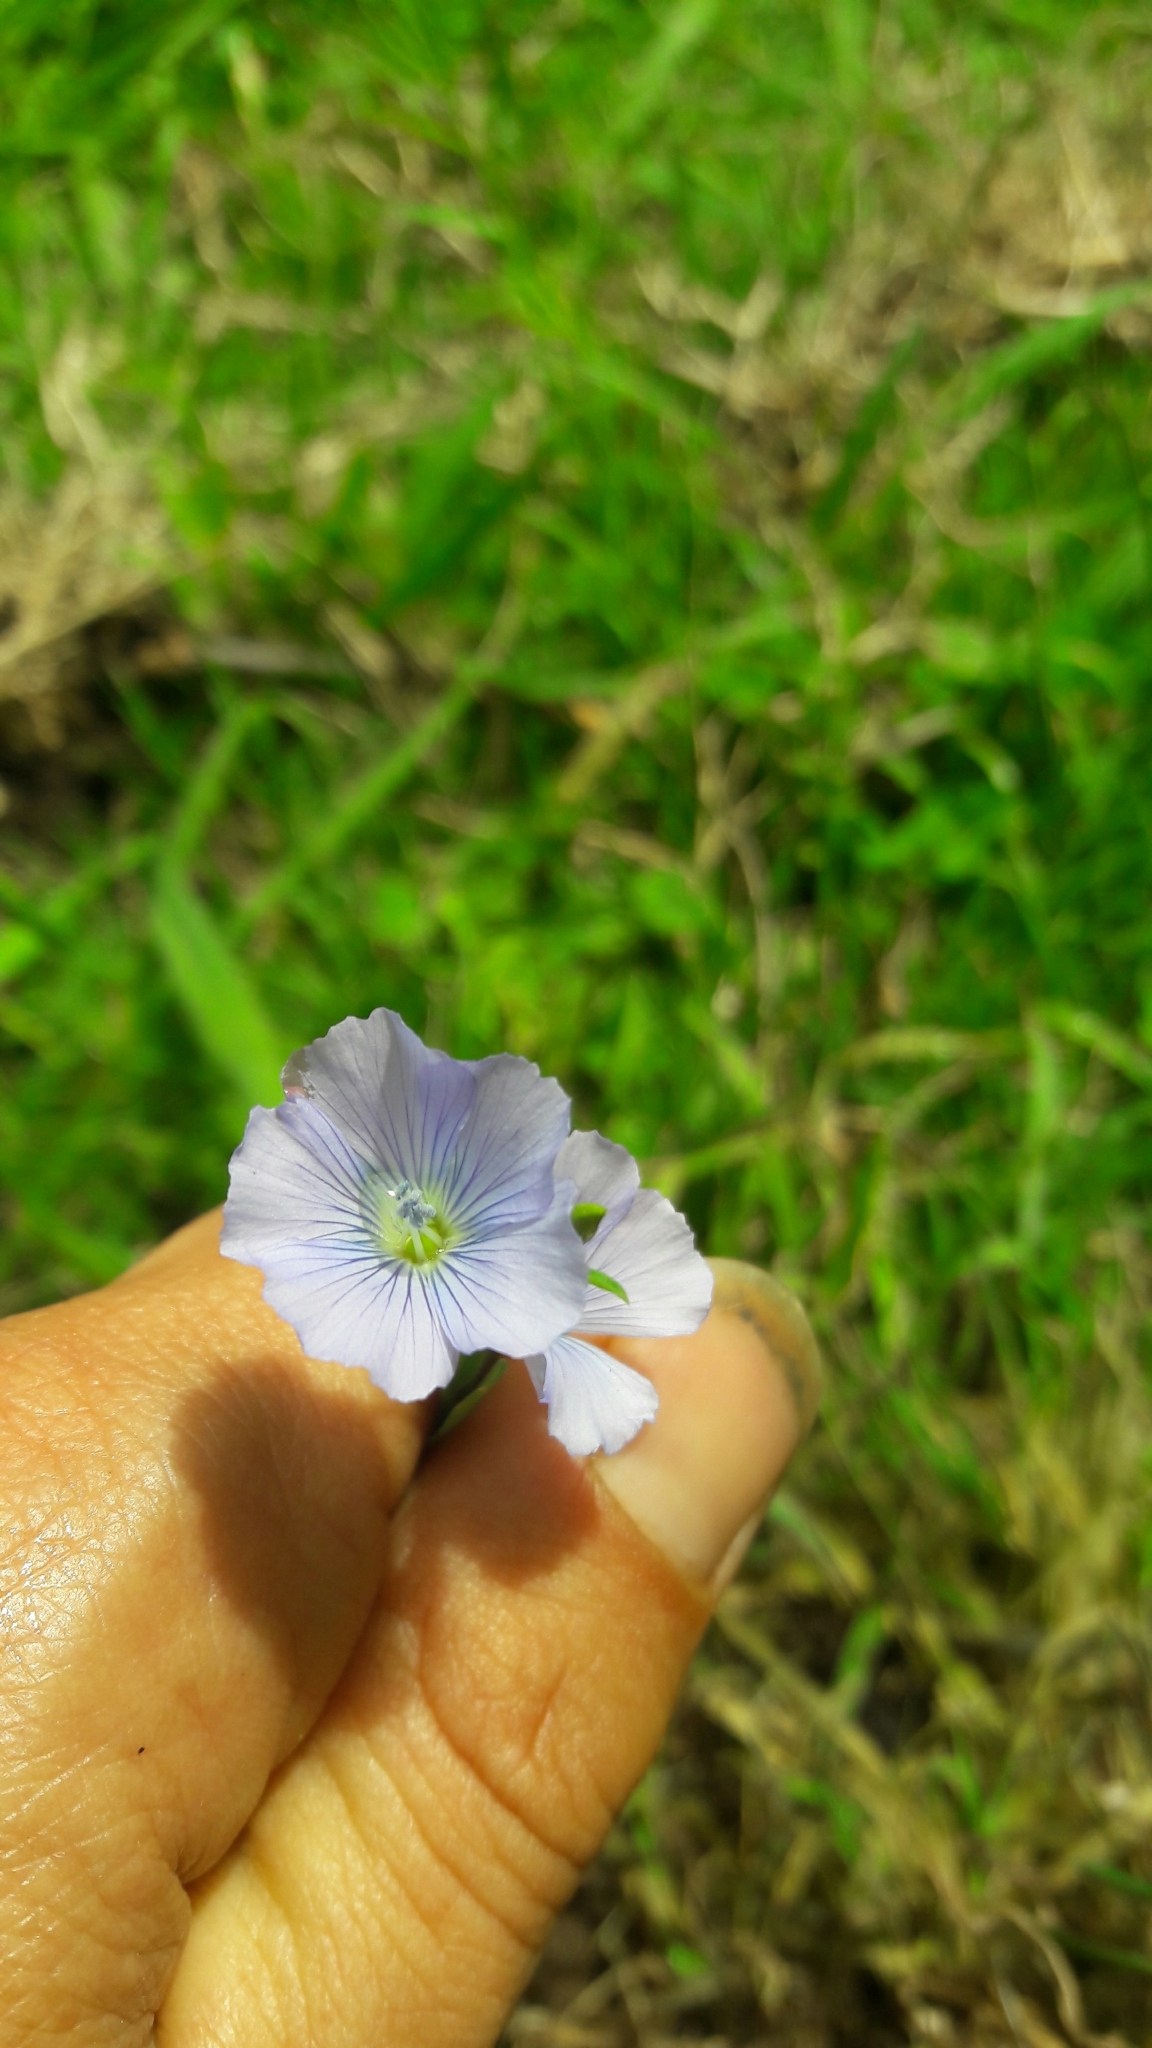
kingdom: Plantae
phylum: Tracheophyta
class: Magnoliopsida
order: Malpighiales
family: Linaceae
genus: Linum
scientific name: Linum usitatissimum
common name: Flax
